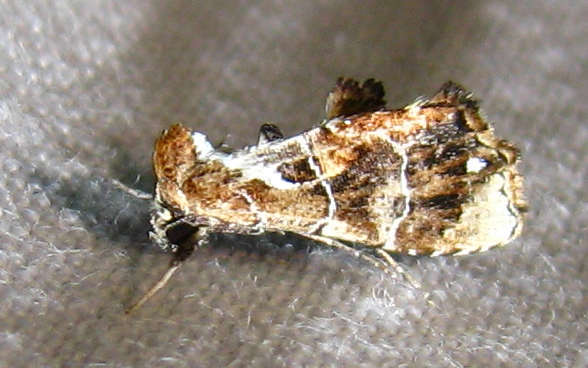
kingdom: Animalia
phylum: Arthropoda
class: Insecta
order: Lepidoptera
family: Erebidae
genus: Arrade
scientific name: Arrade leucocosmalis
